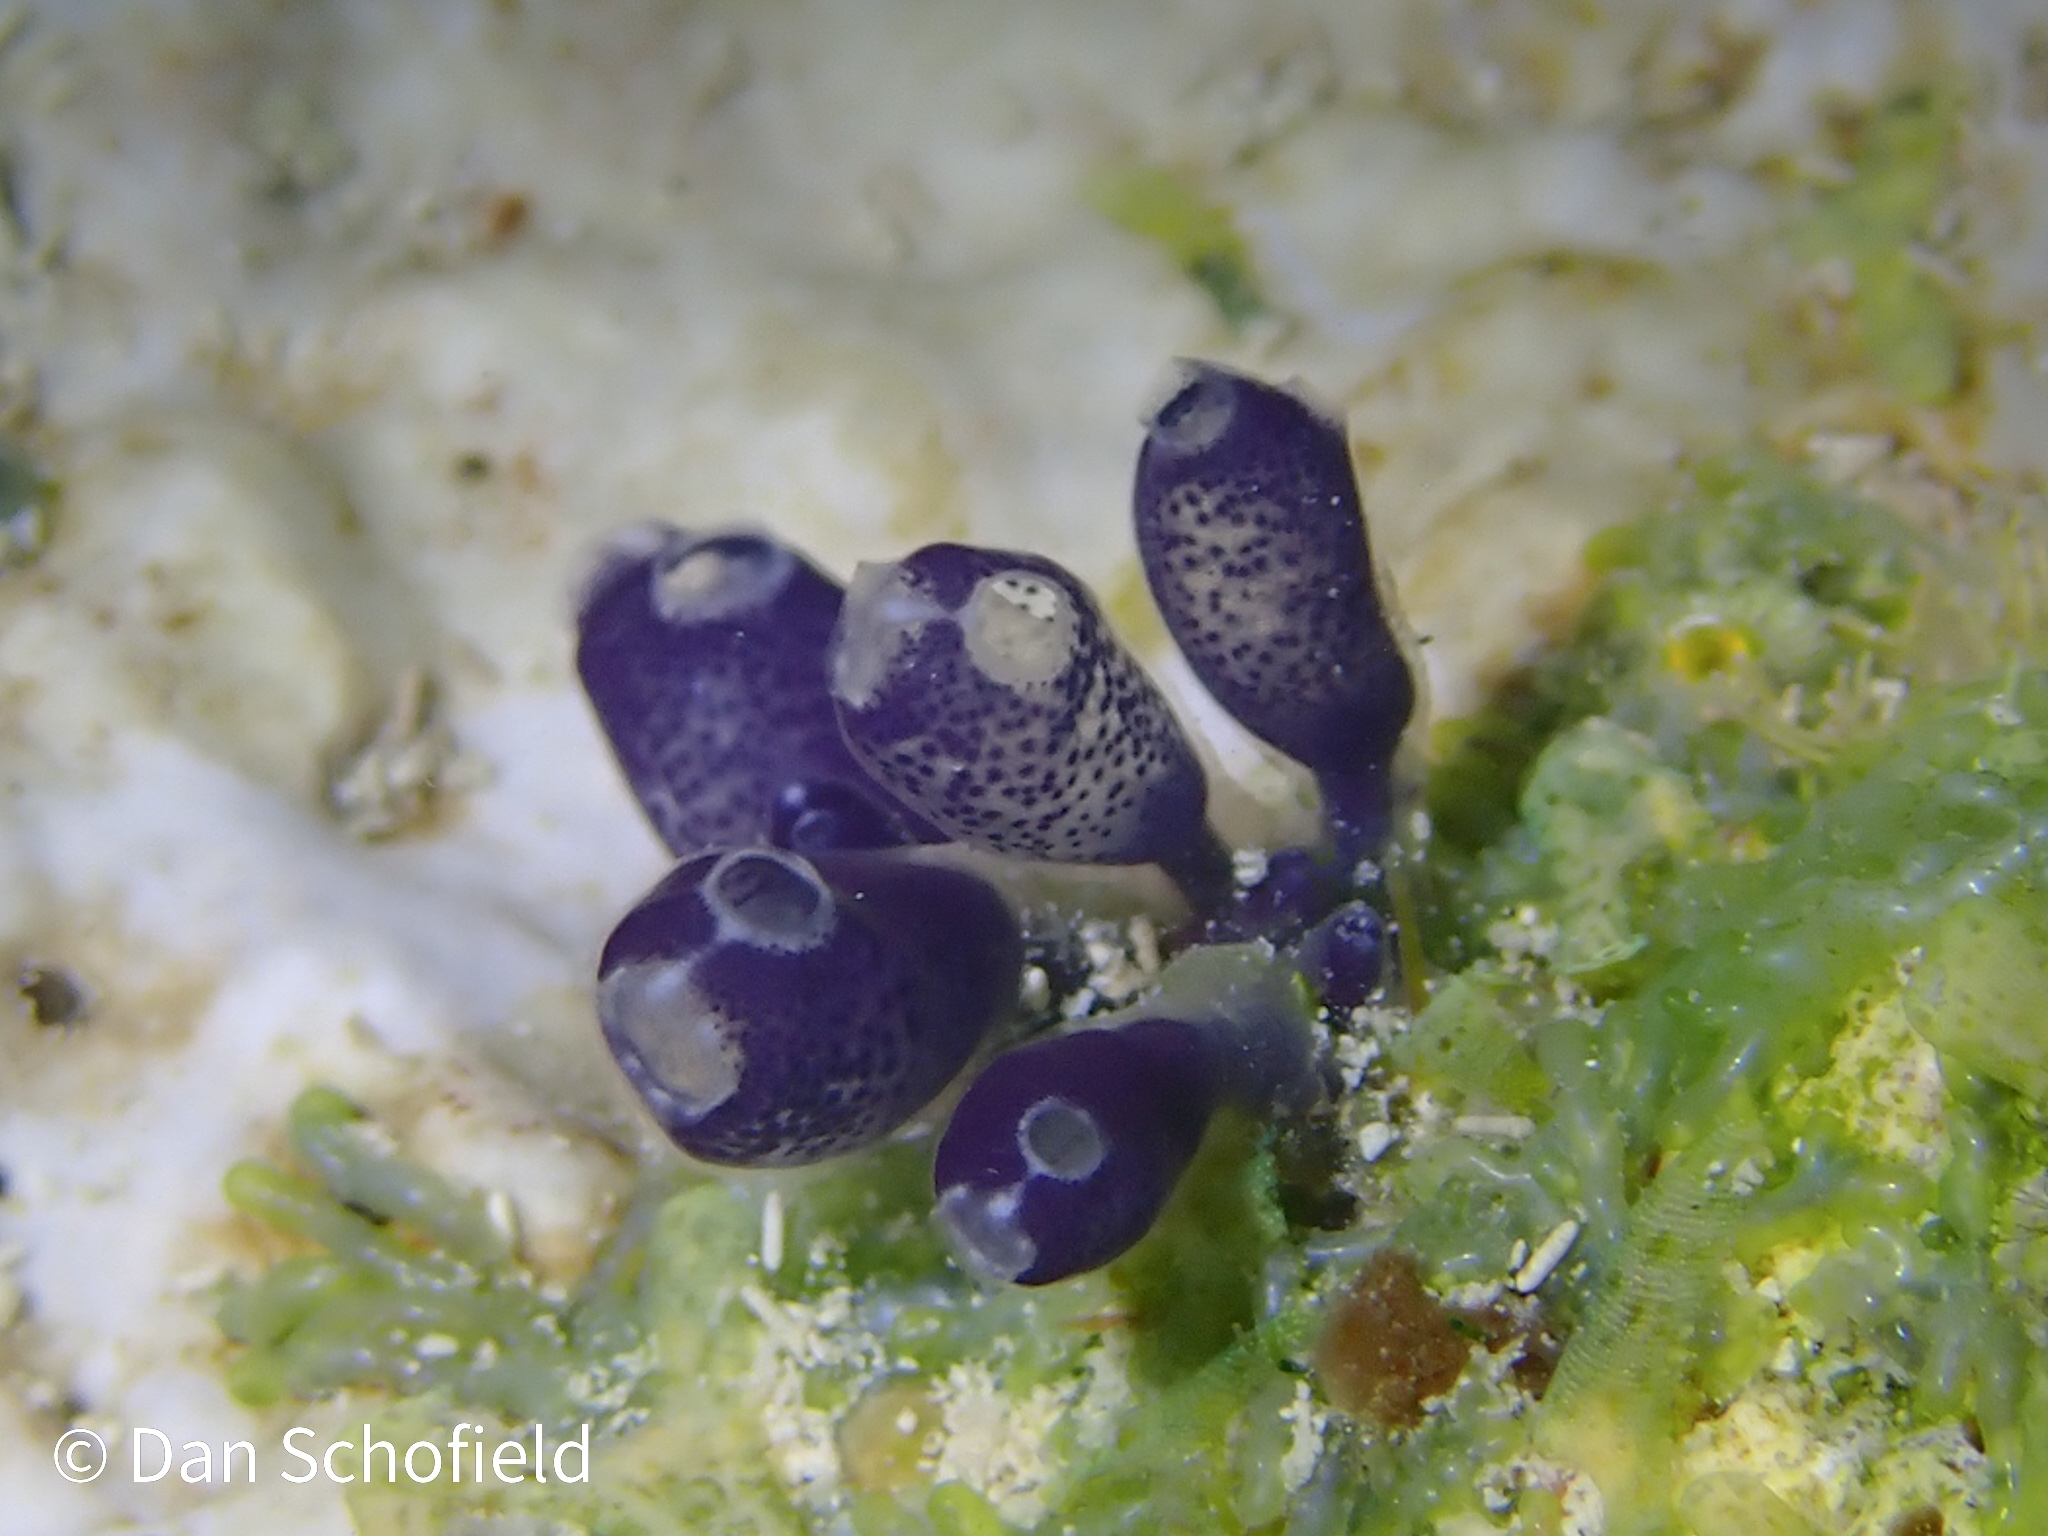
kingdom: Animalia
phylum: Chordata
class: Ascidiacea
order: Aplousobranchia
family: Clavelinidae
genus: Clavelina
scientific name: Clavelina puertosecensis
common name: Blue bell tunicate
